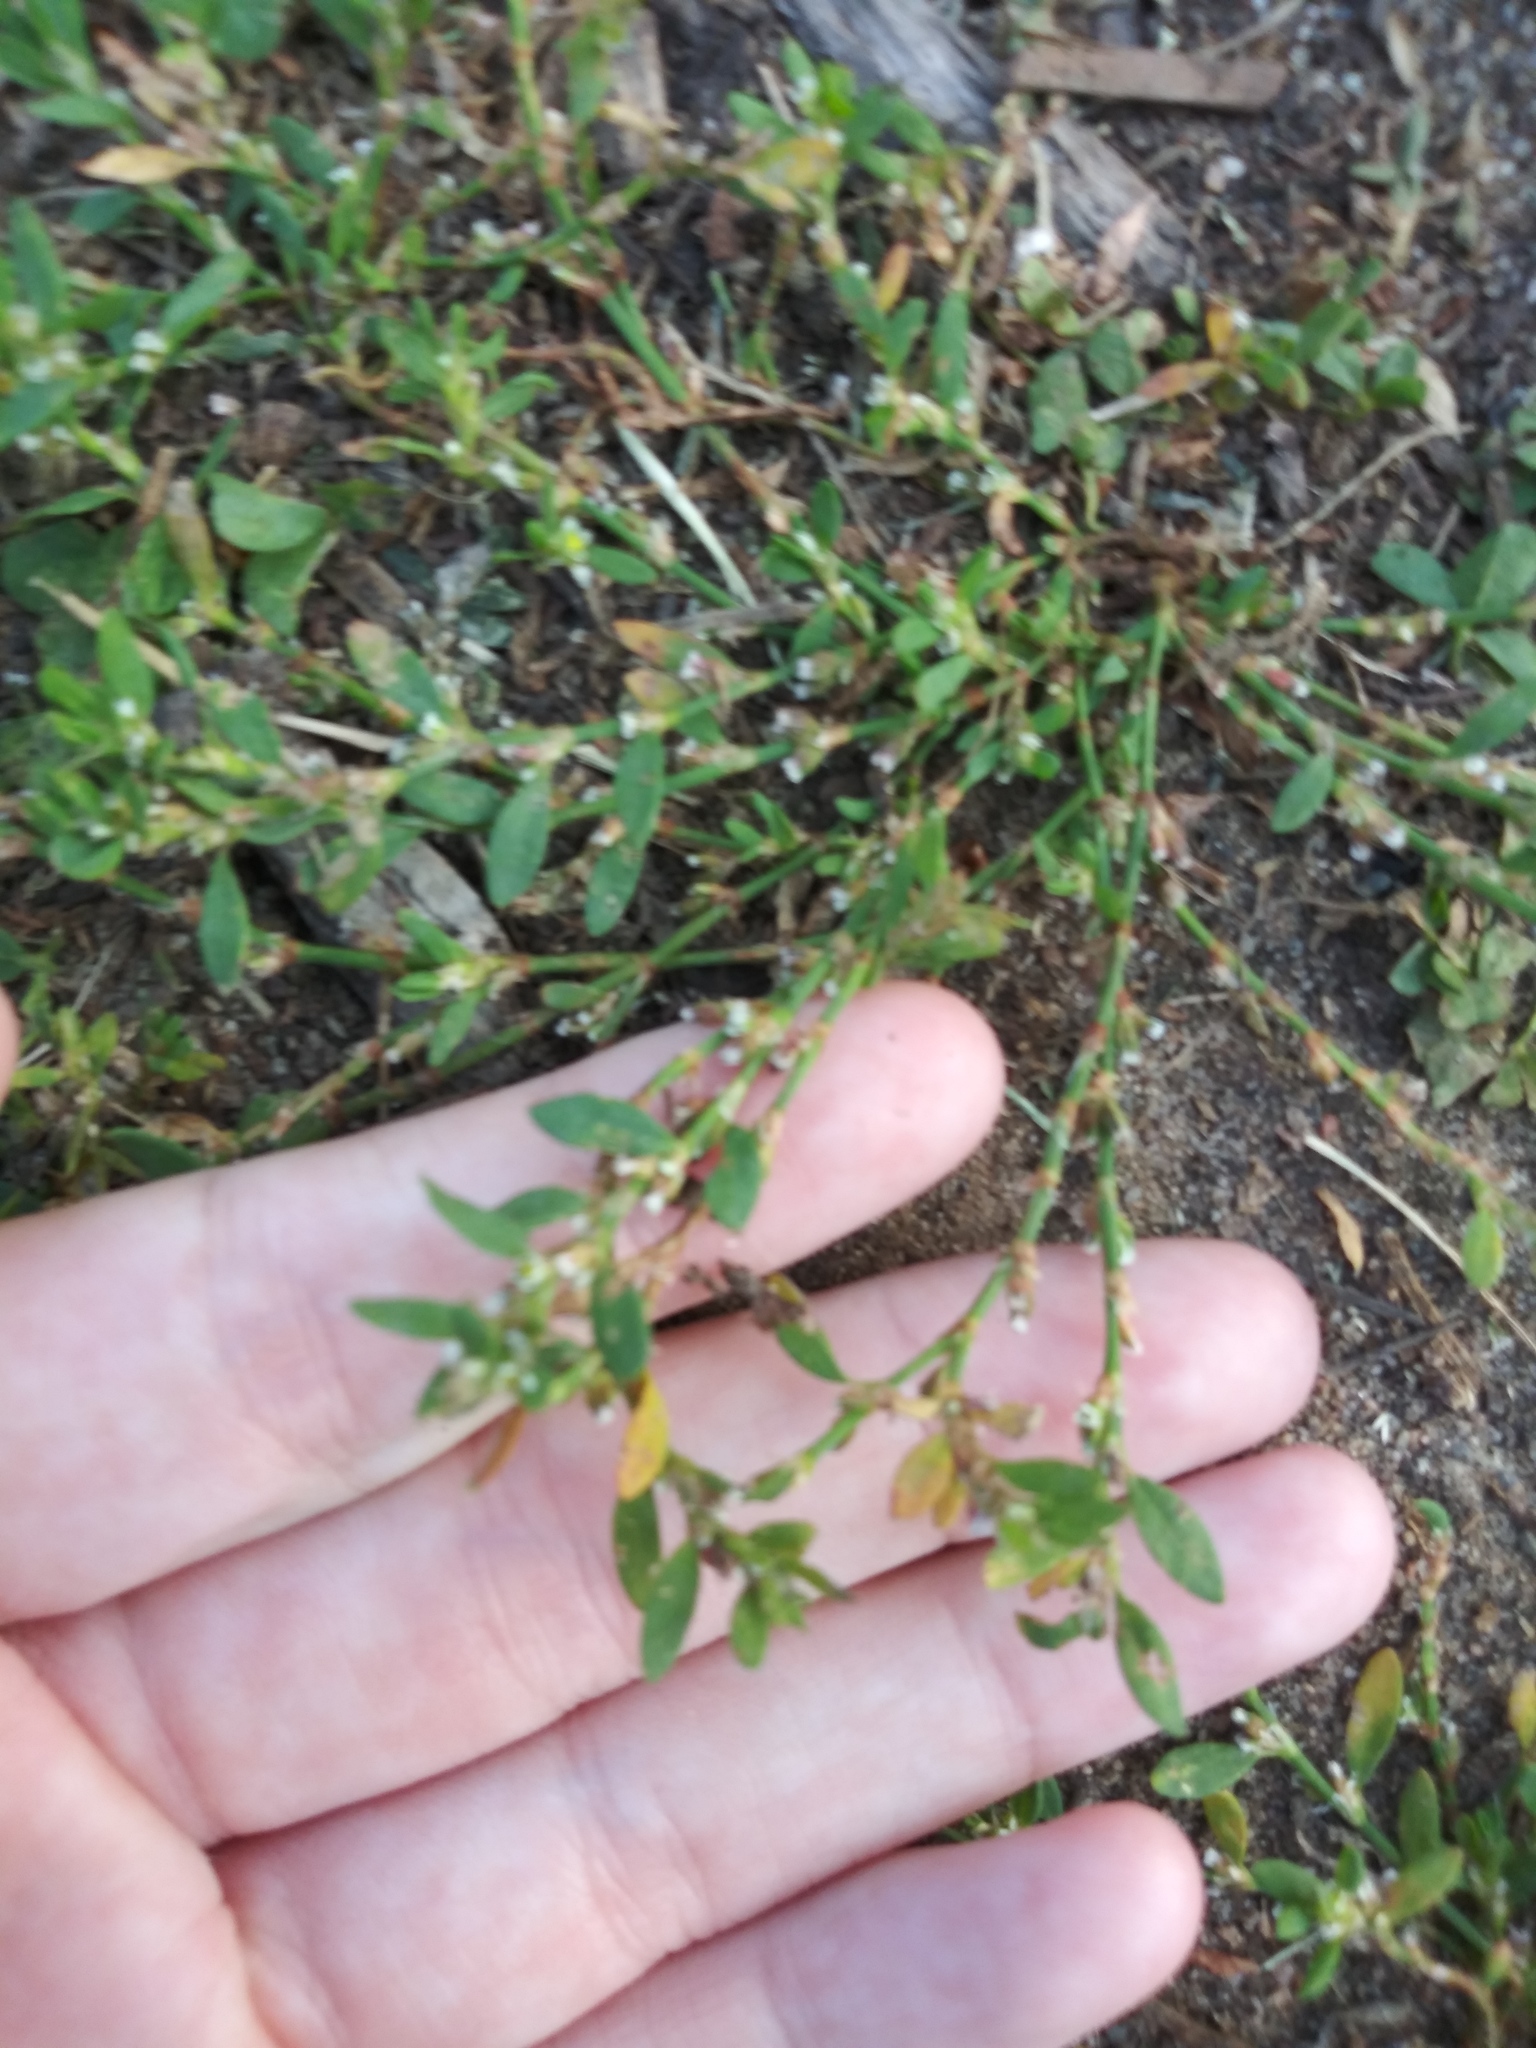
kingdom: Plantae
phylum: Tracheophyta
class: Magnoliopsida
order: Caryophyllales
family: Polygonaceae
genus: Polygonum
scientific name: Polygonum
